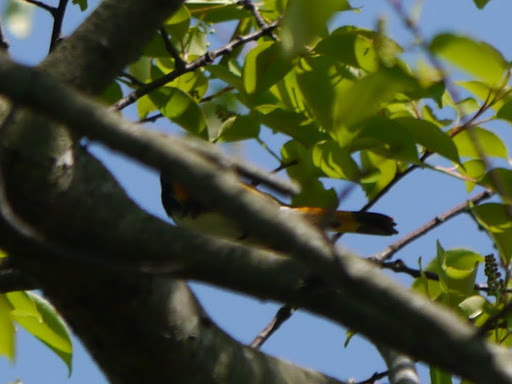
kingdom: Animalia
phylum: Chordata
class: Aves
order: Passeriformes
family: Parulidae
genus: Setophaga
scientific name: Setophaga ruticilla
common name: American redstart
